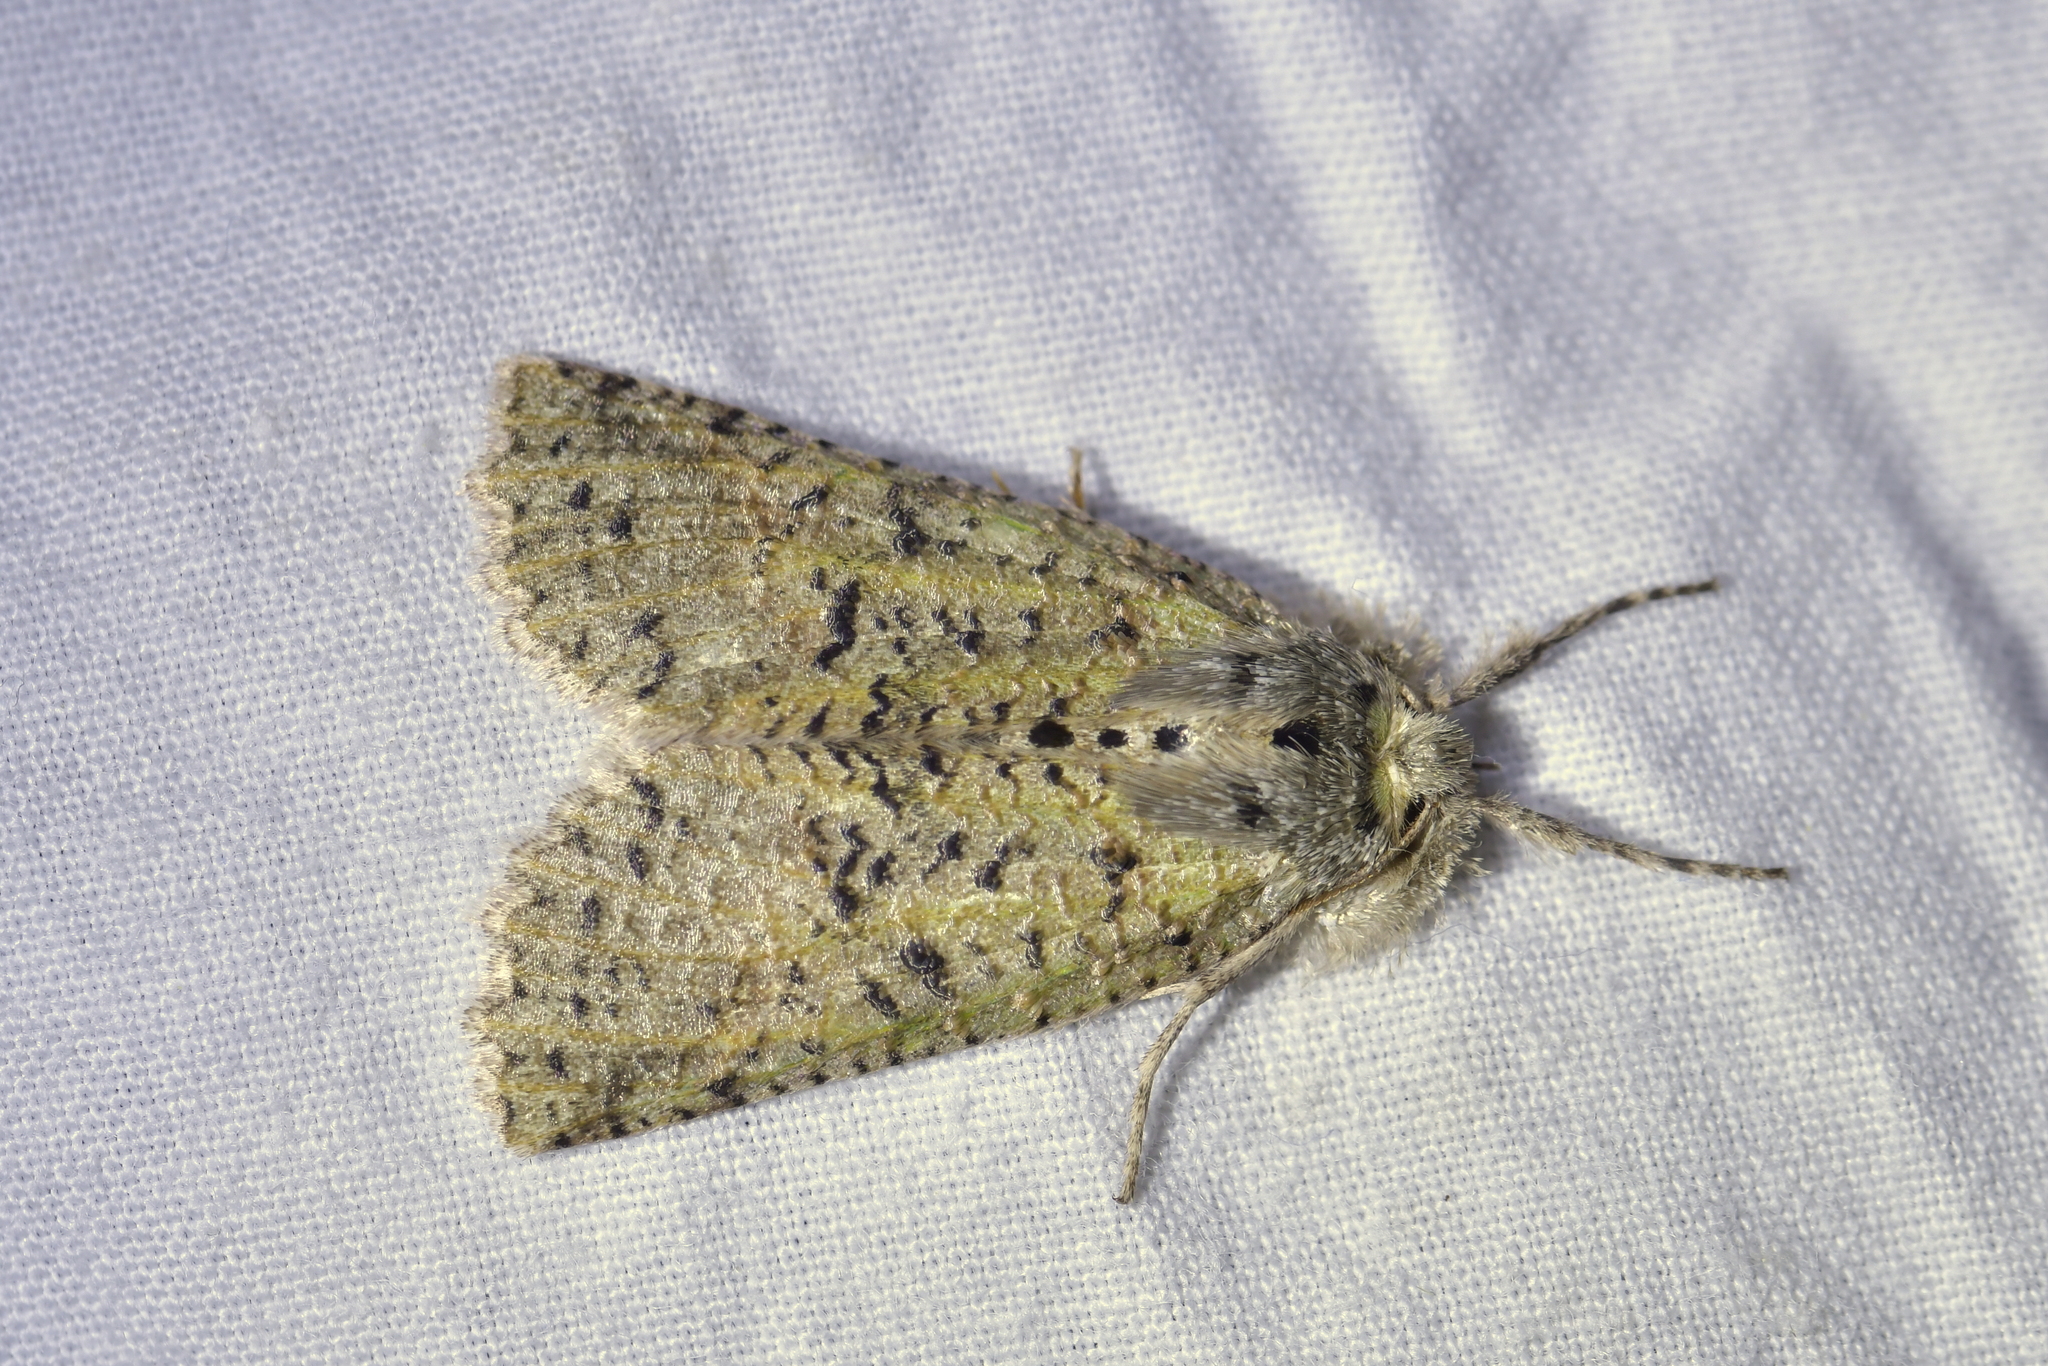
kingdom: Animalia
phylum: Arthropoda
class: Insecta
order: Lepidoptera
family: Geometridae
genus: Declana
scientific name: Declana floccosa
